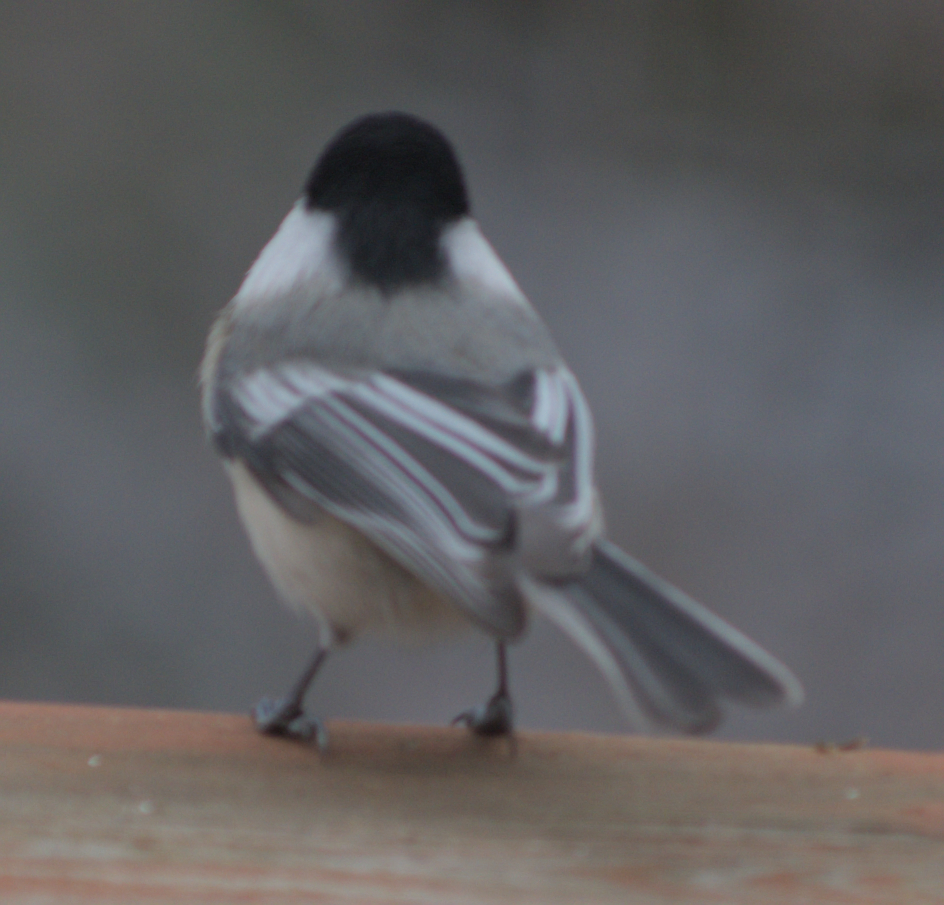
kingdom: Animalia
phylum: Chordata
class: Aves
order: Passeriformes
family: Paridae
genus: Poecile
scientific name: Poecile atricapillus
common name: Black-capped chickadee
